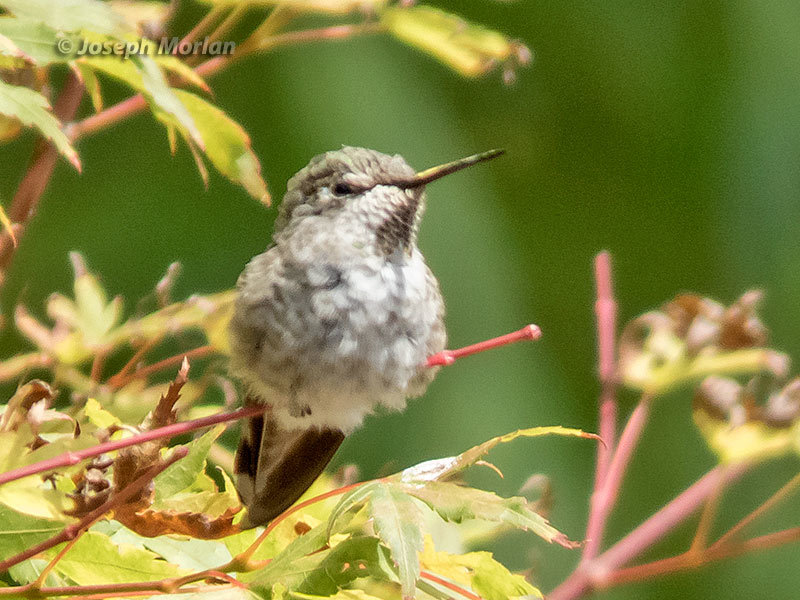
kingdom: Animalia
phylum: Chordata
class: Aves
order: Apodiformes
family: Trochilidae
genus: Calypte
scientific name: Calypte anna
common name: Anna's hummingbird
